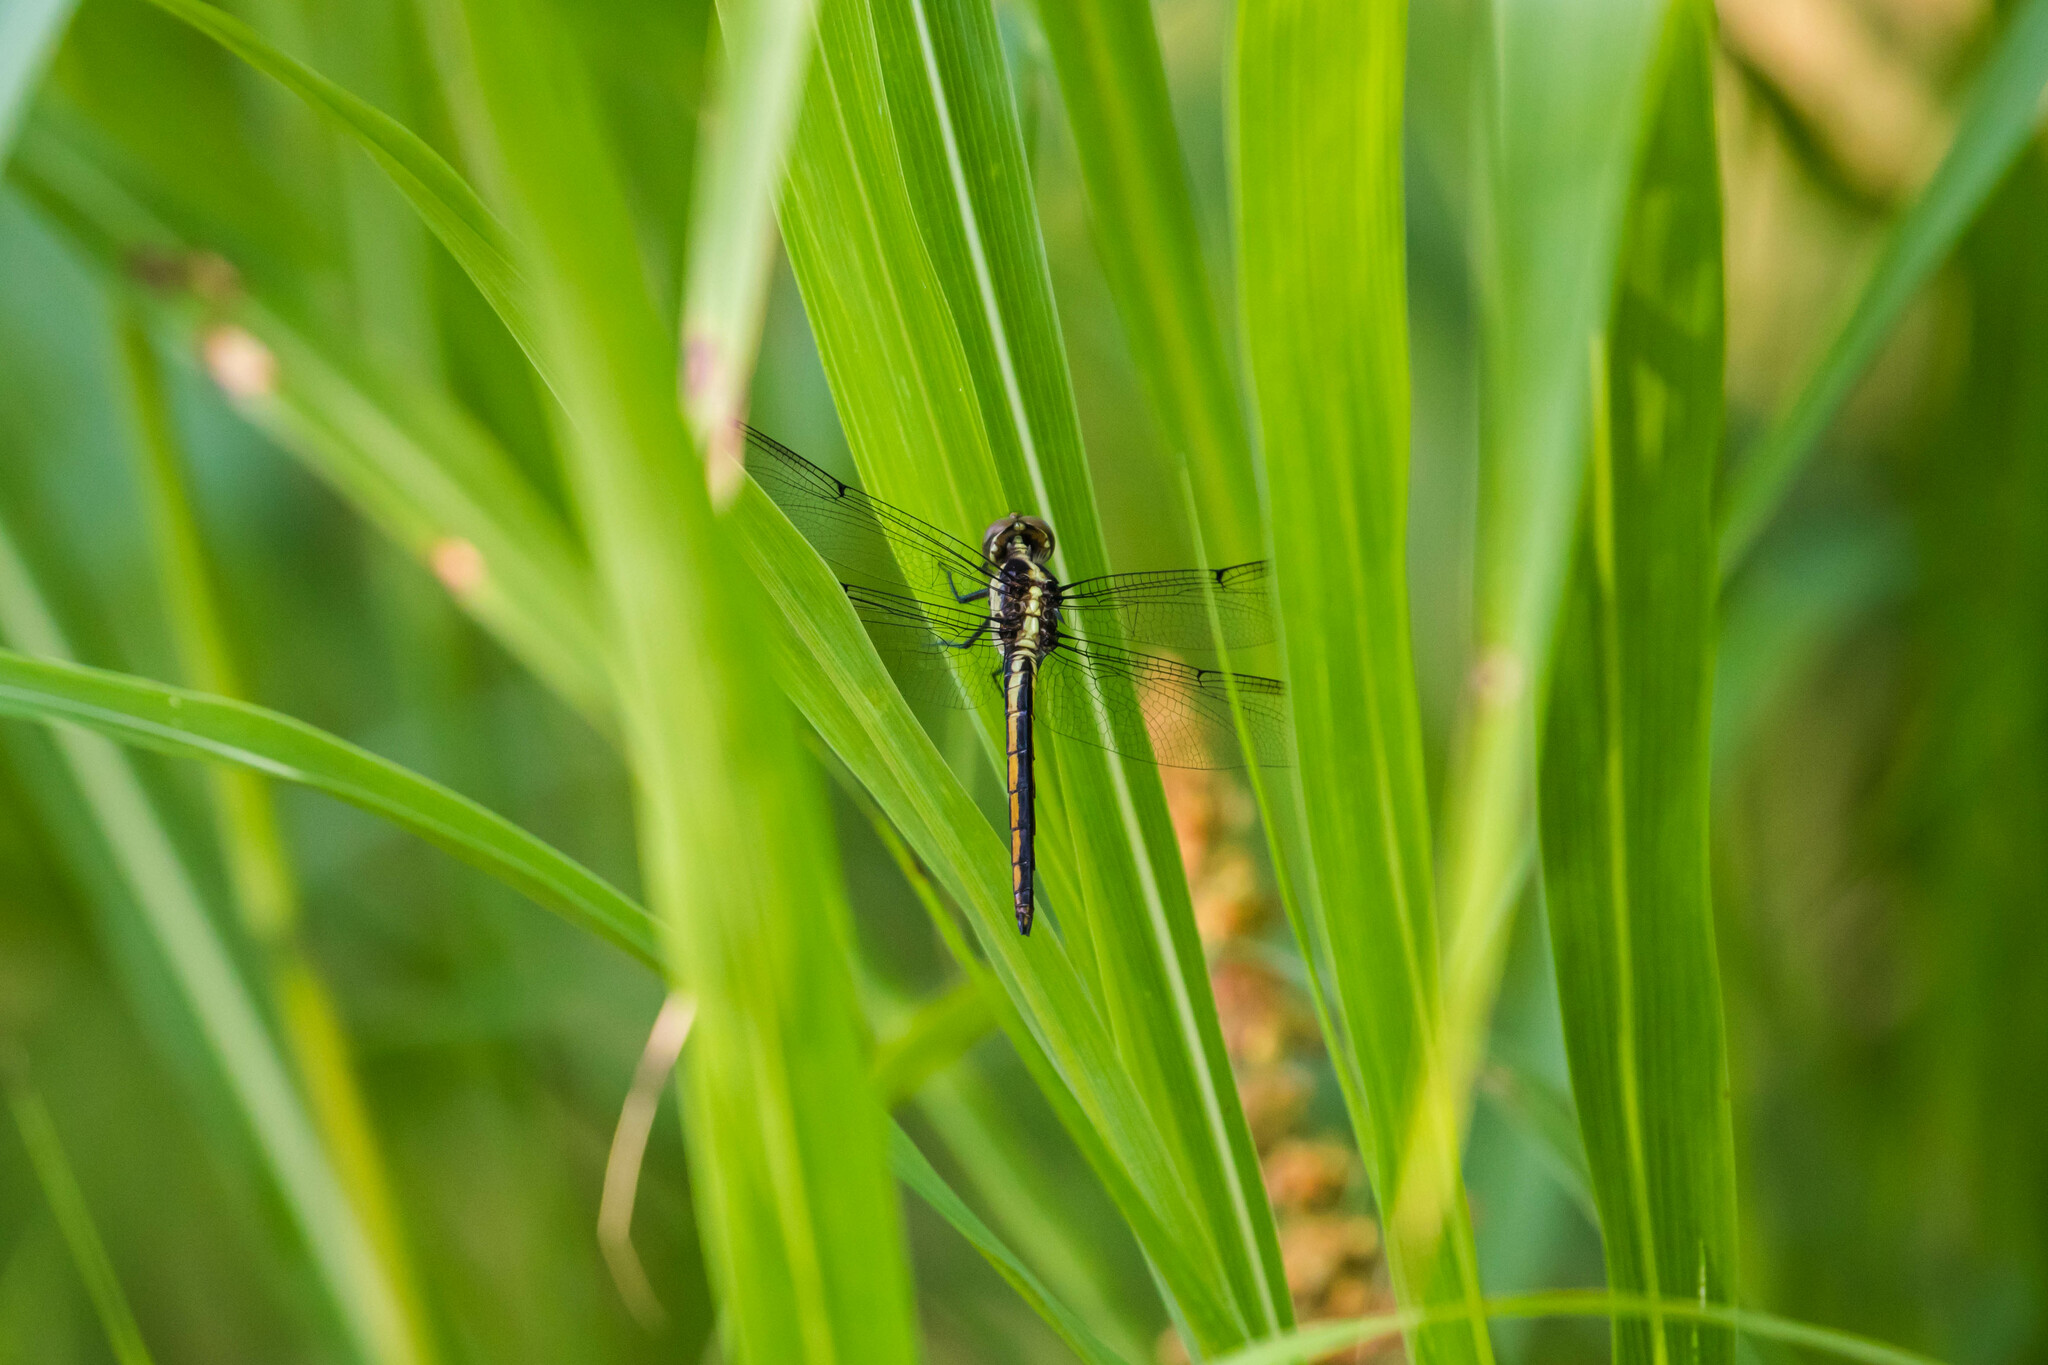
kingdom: Animalia
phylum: Arthropoda
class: Insecta
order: Odonata
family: Libellulidae
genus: Libellula
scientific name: Libellula incesta
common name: Slaty skimmer
